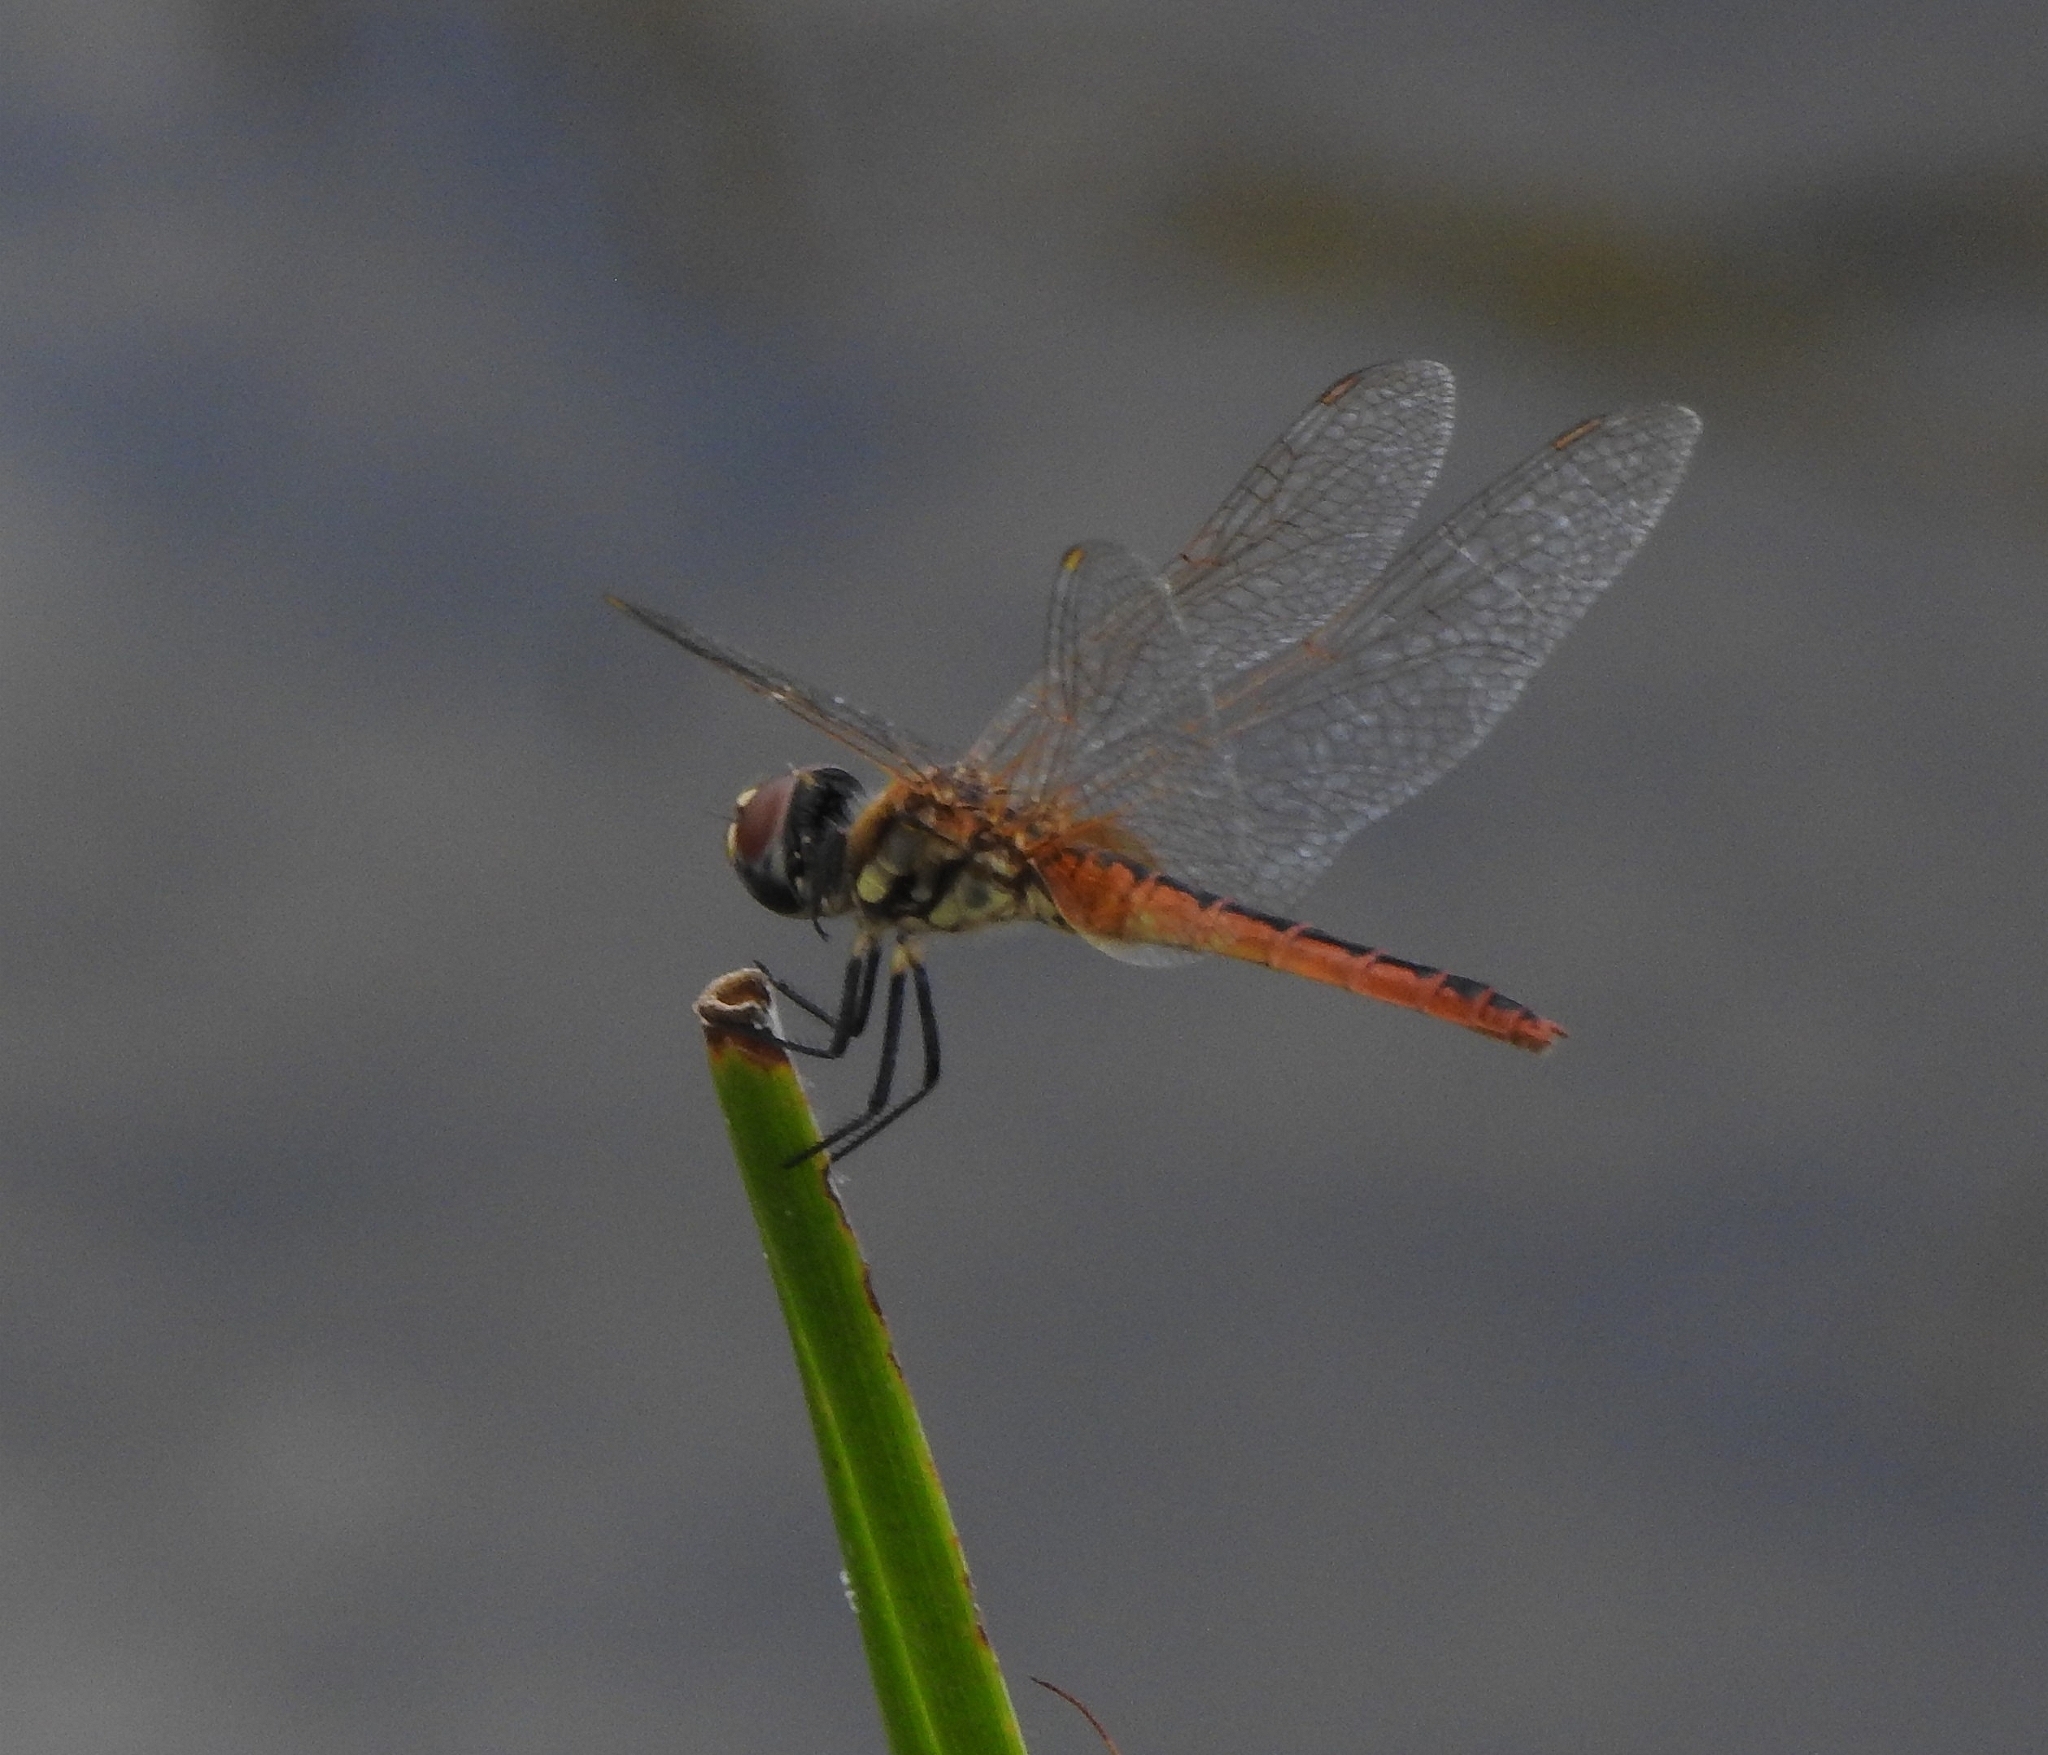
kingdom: Animalia
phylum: Arthropoda
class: Insecta
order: Odonata
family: Libellulidae
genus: Macrodiplax
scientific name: Macrodiplax cora
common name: Coastal glider
